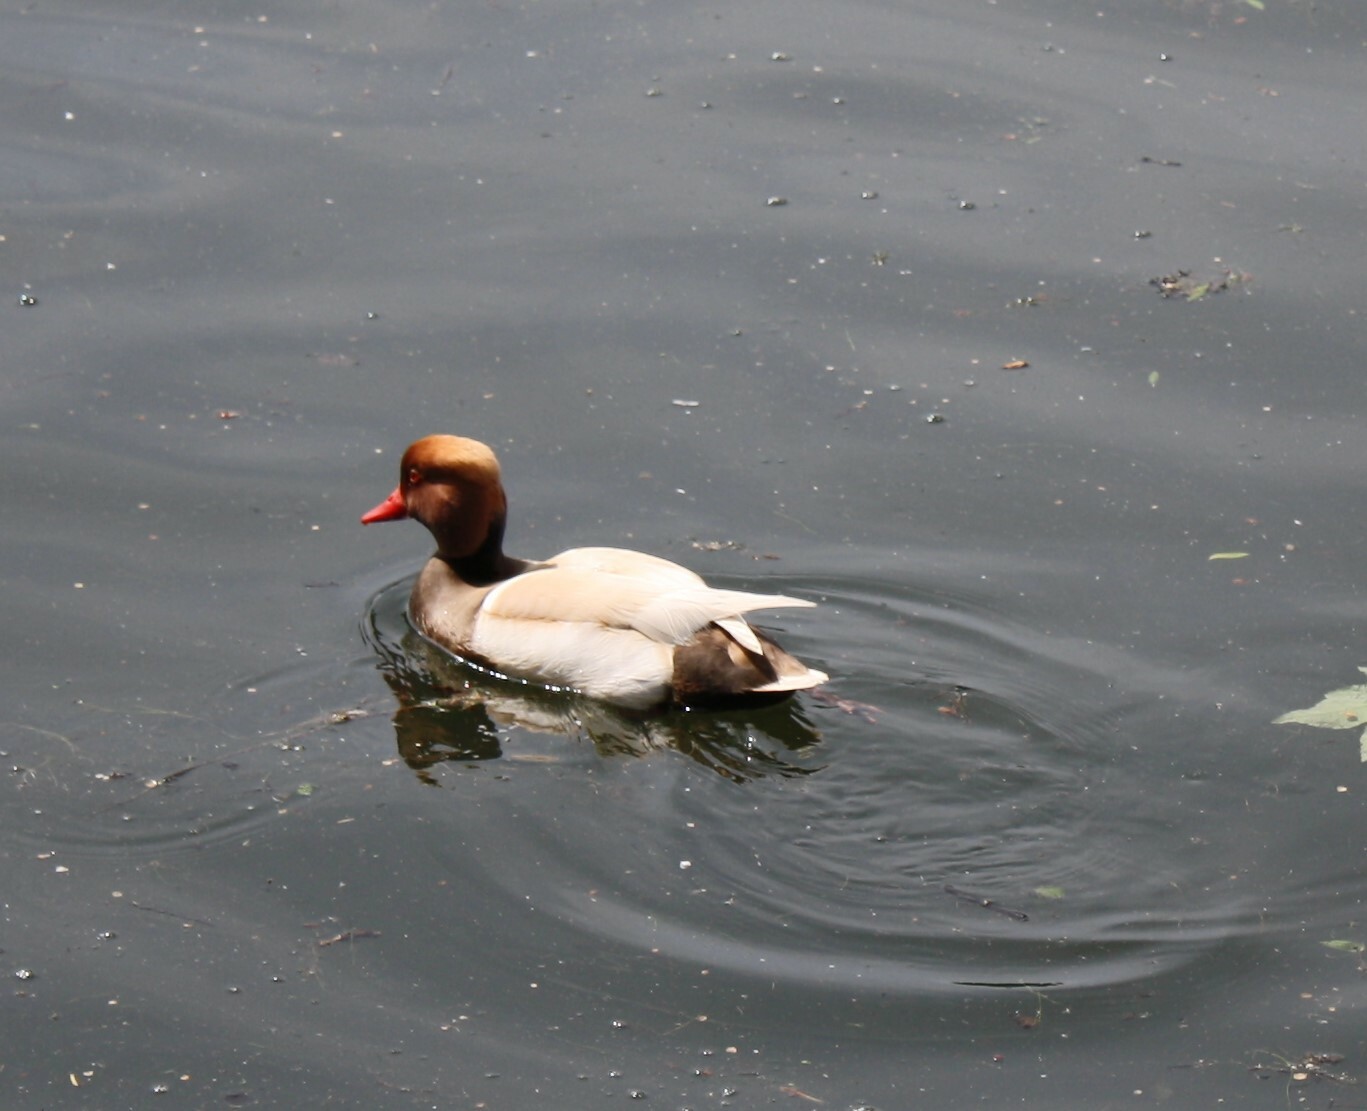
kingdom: Animalia
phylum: Chordata
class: Aves
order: Anseriformes
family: Anatidae
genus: Netta
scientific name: Netta rufina
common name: Red-crested pochard
